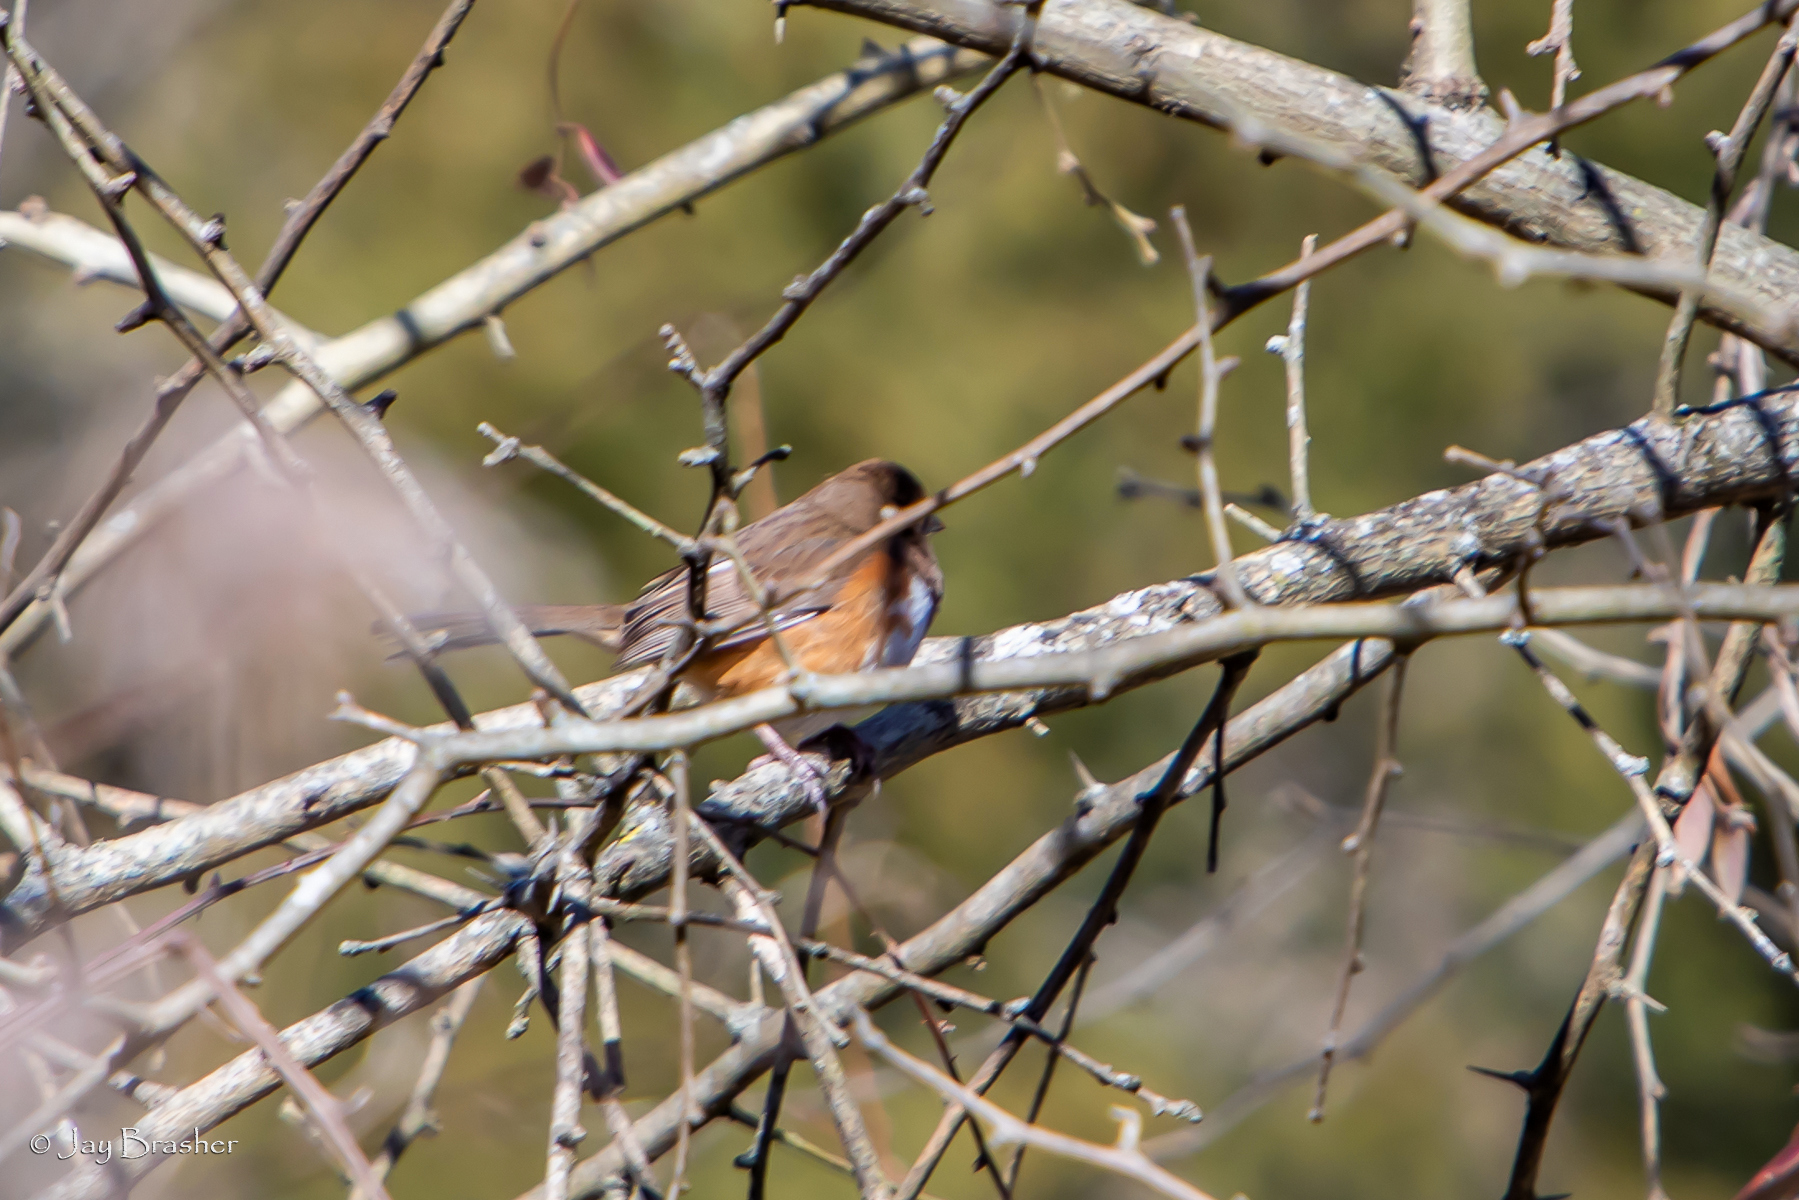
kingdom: Animalia
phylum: Chordata
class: Aves
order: Passeriformes
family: Passerellidae
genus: Pipilo
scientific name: Pipilo erythrophthalmus
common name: Eastern towhee
